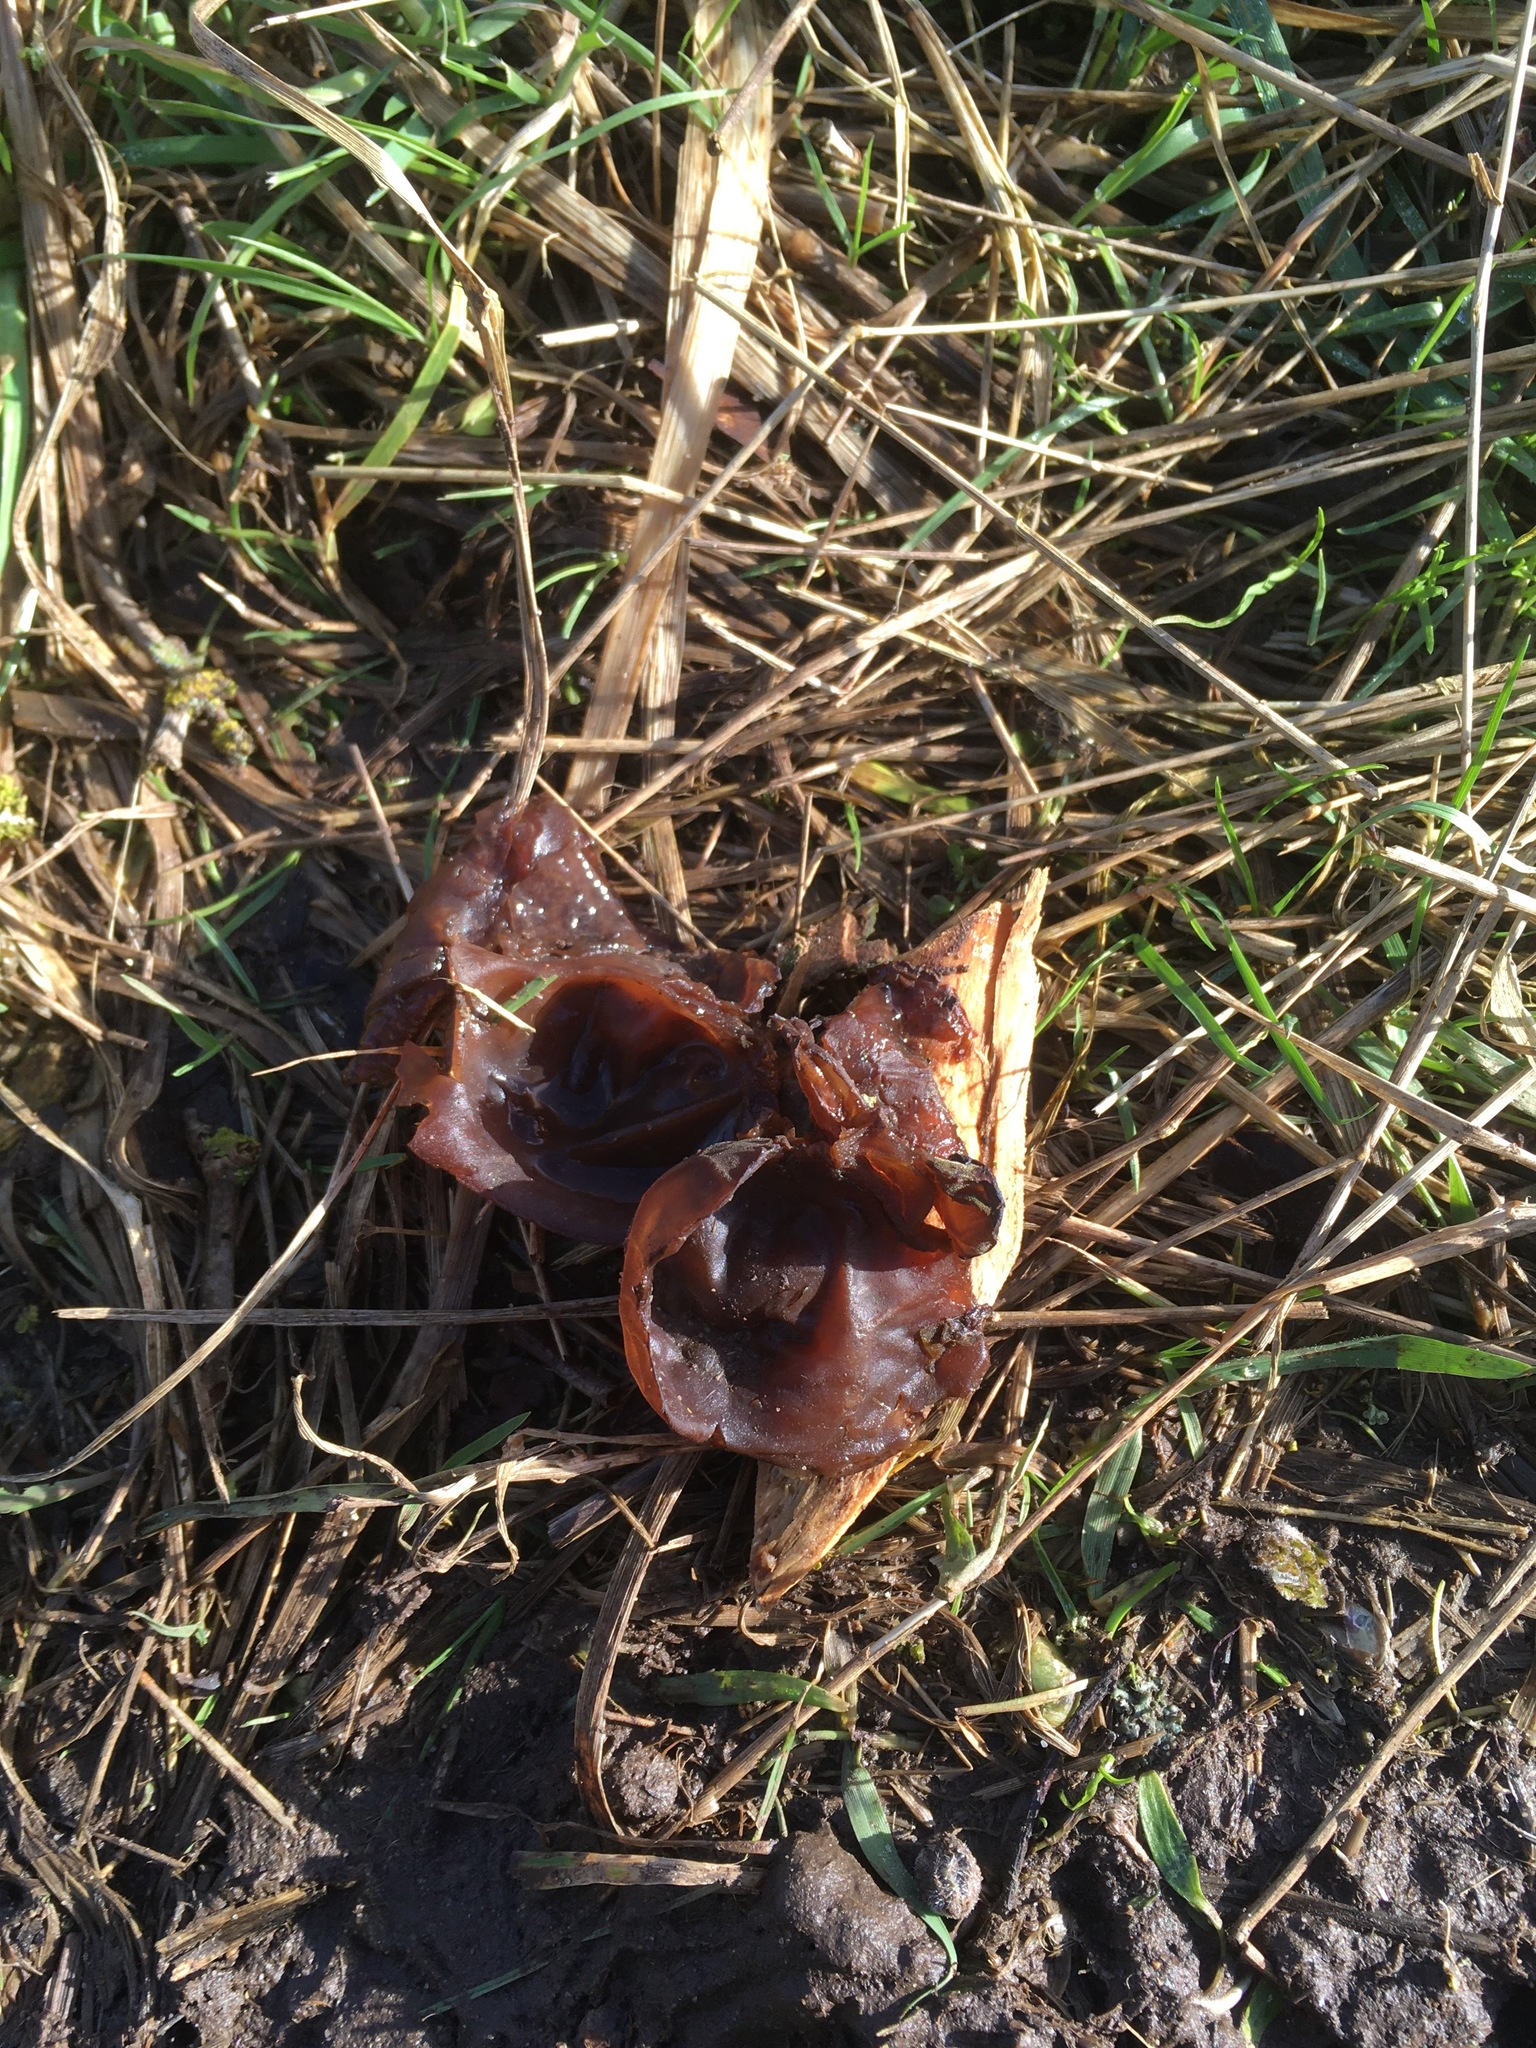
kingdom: Fungi
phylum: Basidiomycota
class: Agaricomycetes
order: Auriculariales
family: Auriculariaceae
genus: Auricularia
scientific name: Auricularia auricula-judae
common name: Jelly ear
